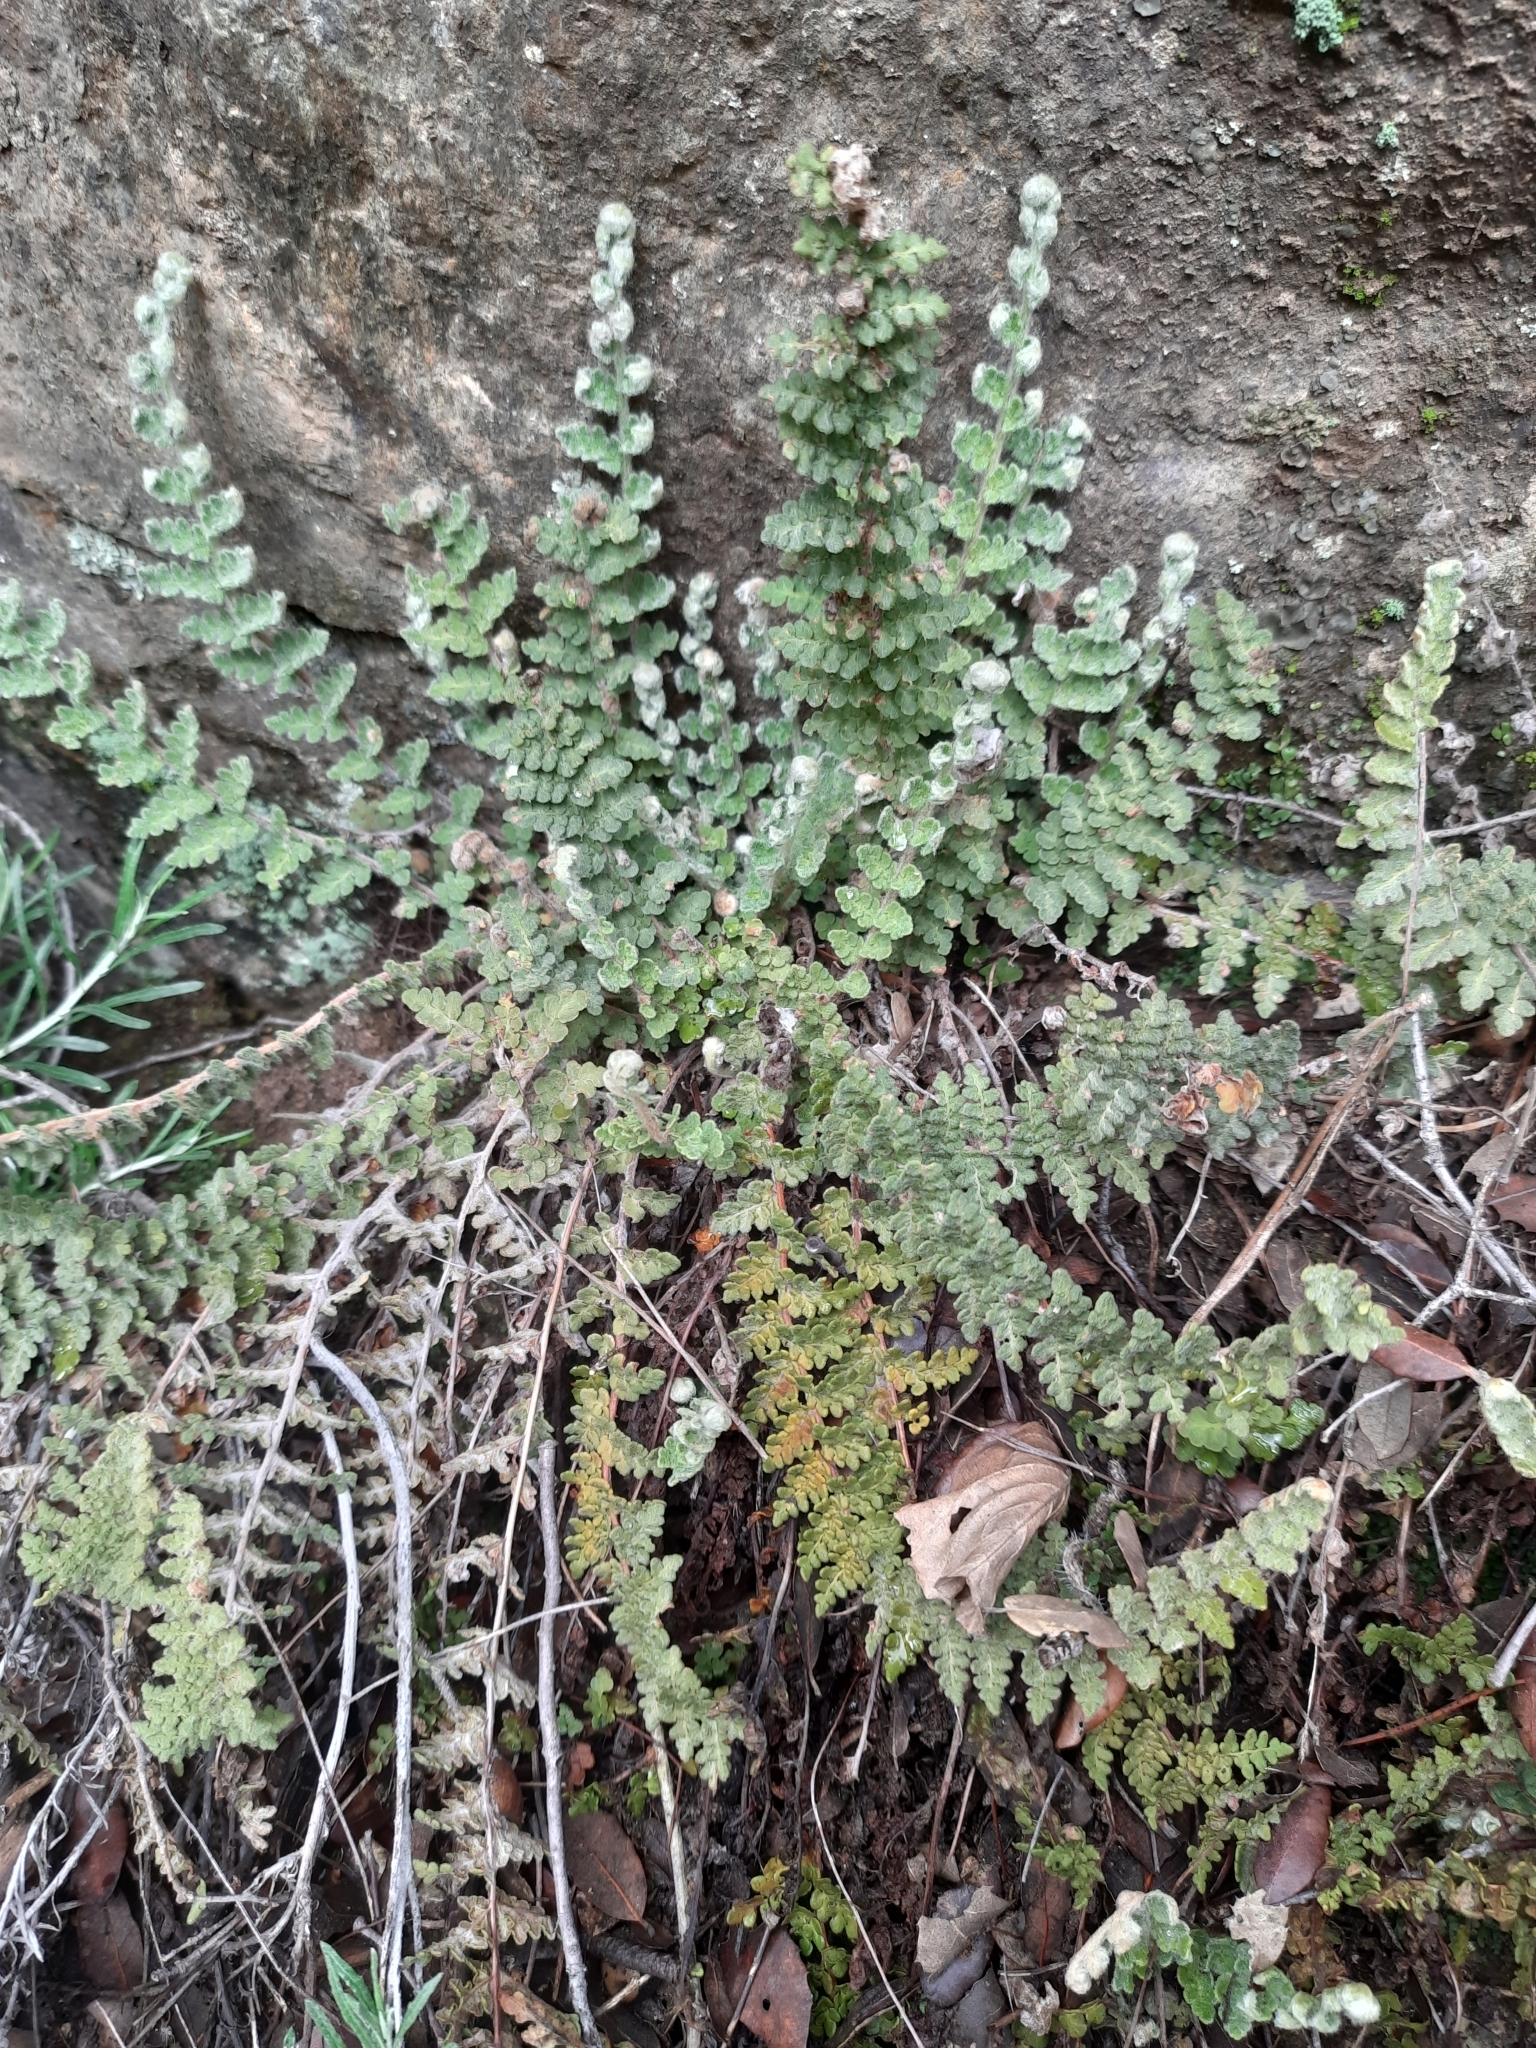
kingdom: Plantae
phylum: Tracheophyta
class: Polypodiopsida
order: Polypodiales
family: Pteridaceae
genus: Cosentinia
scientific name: Cosentinia vellea
